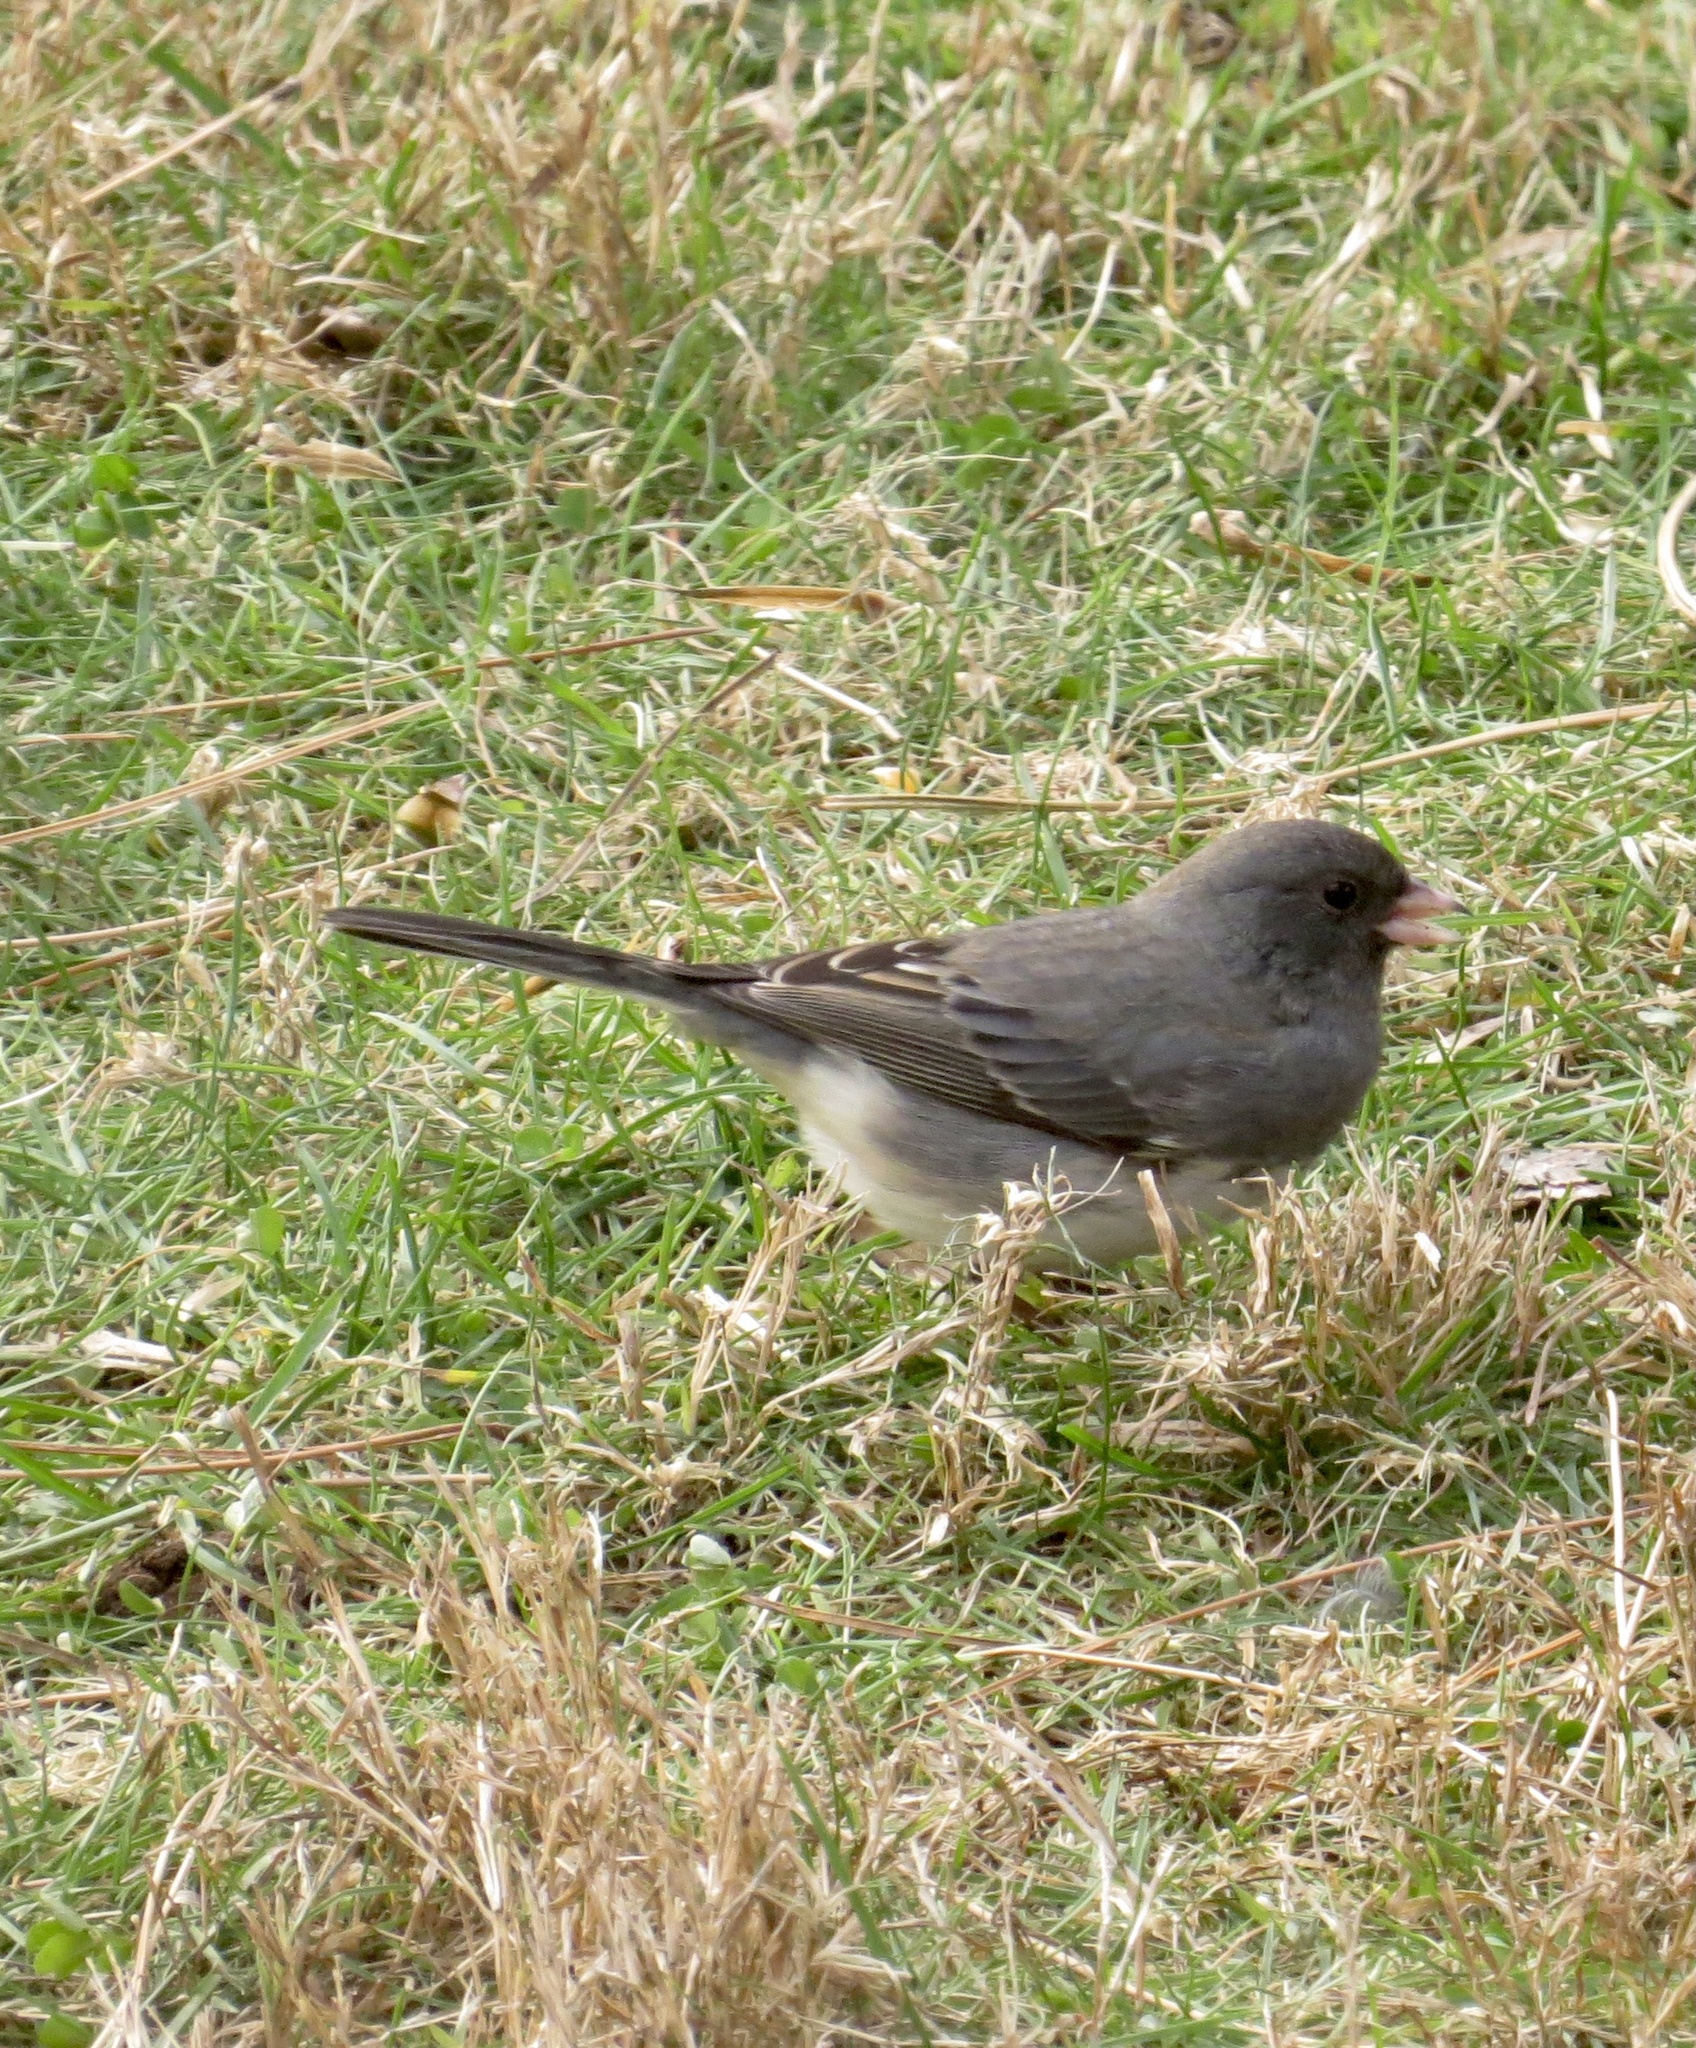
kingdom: Animalia
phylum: Chordata
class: Aves
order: Passeriformes
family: Passerellidae
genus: Junco
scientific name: Junco hyemalis
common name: Dark-eyed junco
